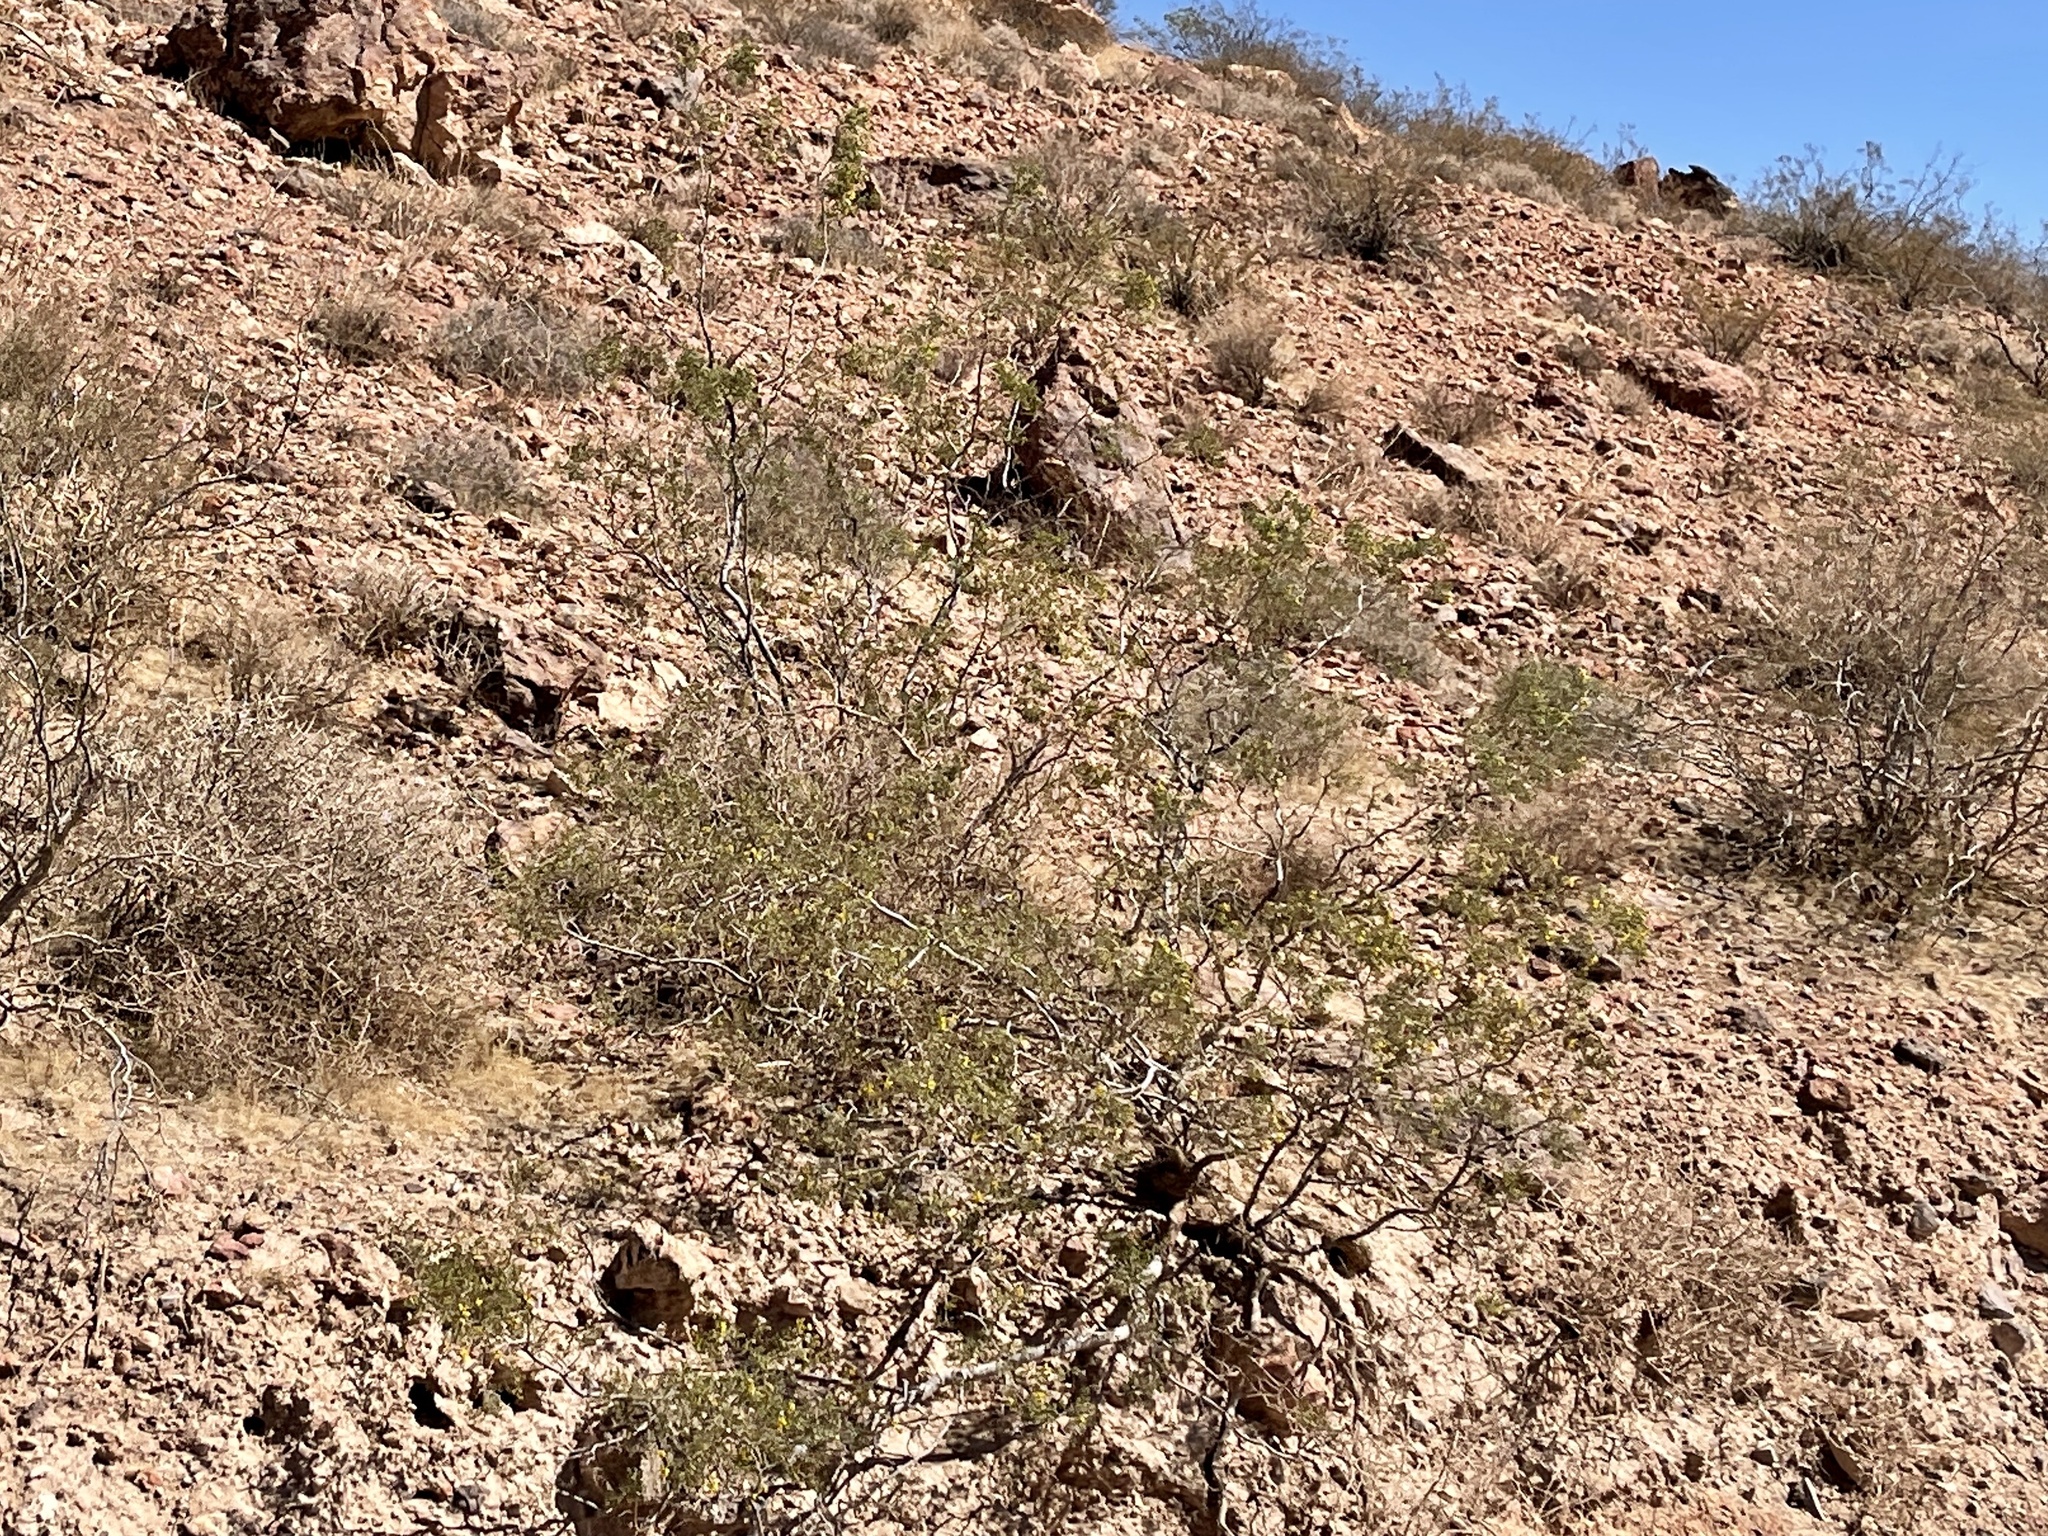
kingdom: Plantae
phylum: Tracheophyta
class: Magnoliopsida
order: Zygophyllales
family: Zygophyllaceae
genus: Larrea
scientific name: Larrea tridentata
